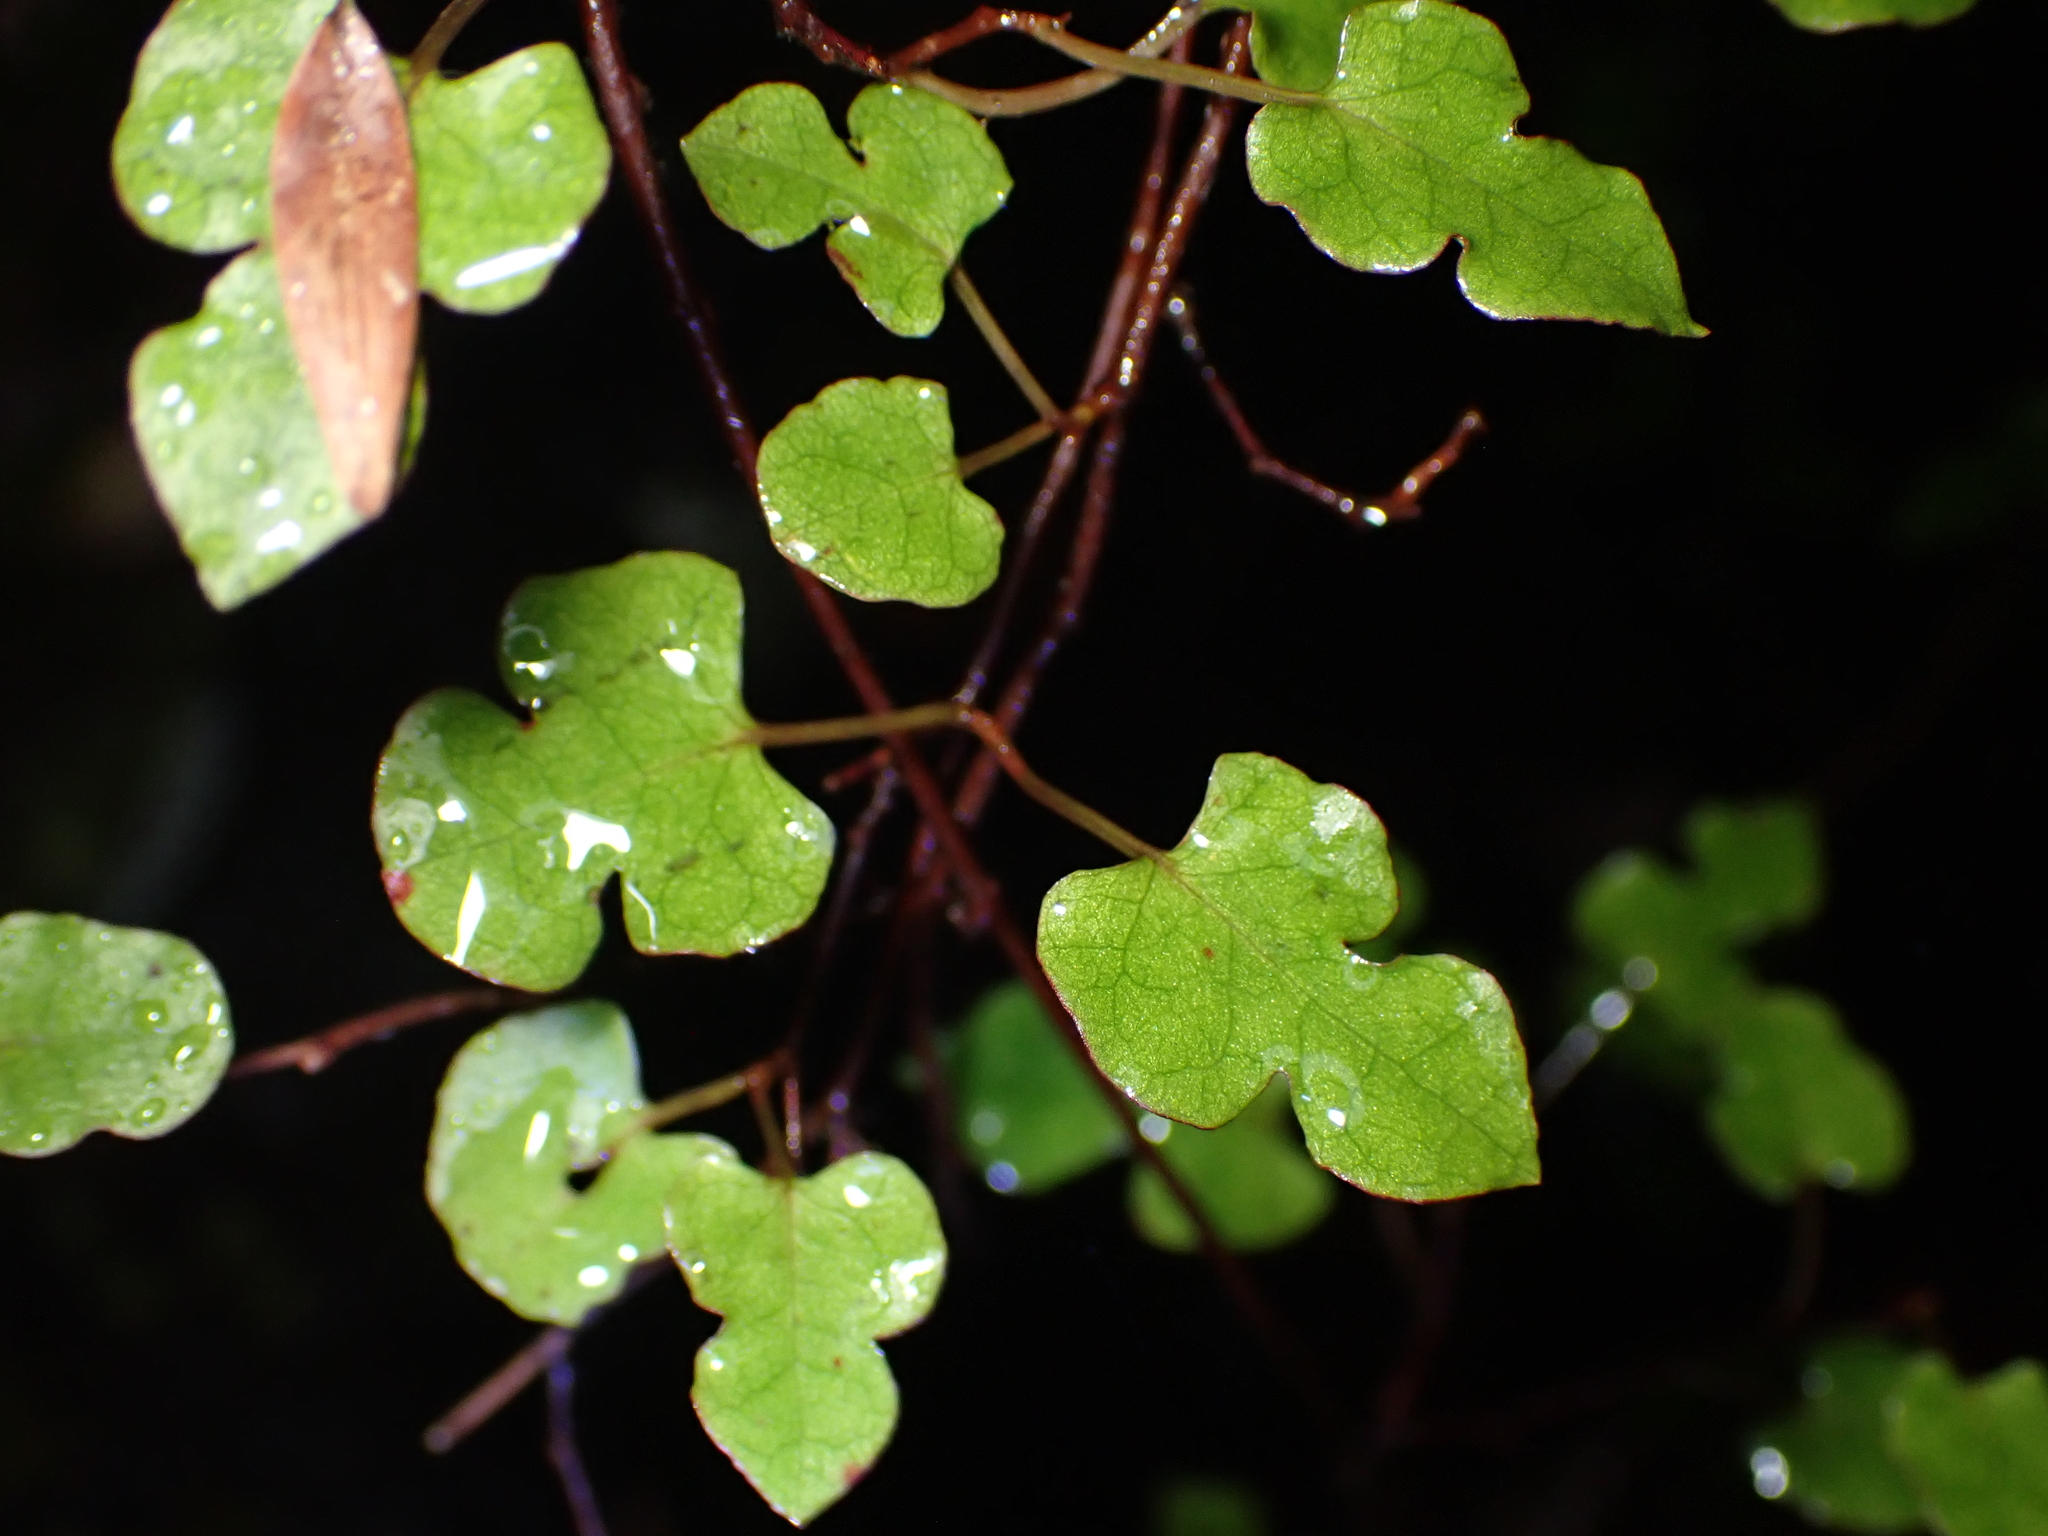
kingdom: Plantae
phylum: Tracheophyta
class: Magnoliopsida
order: Caryophyllales
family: Polygonaceae
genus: Muehlenbeckia
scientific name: Muehlenbeckia australis
